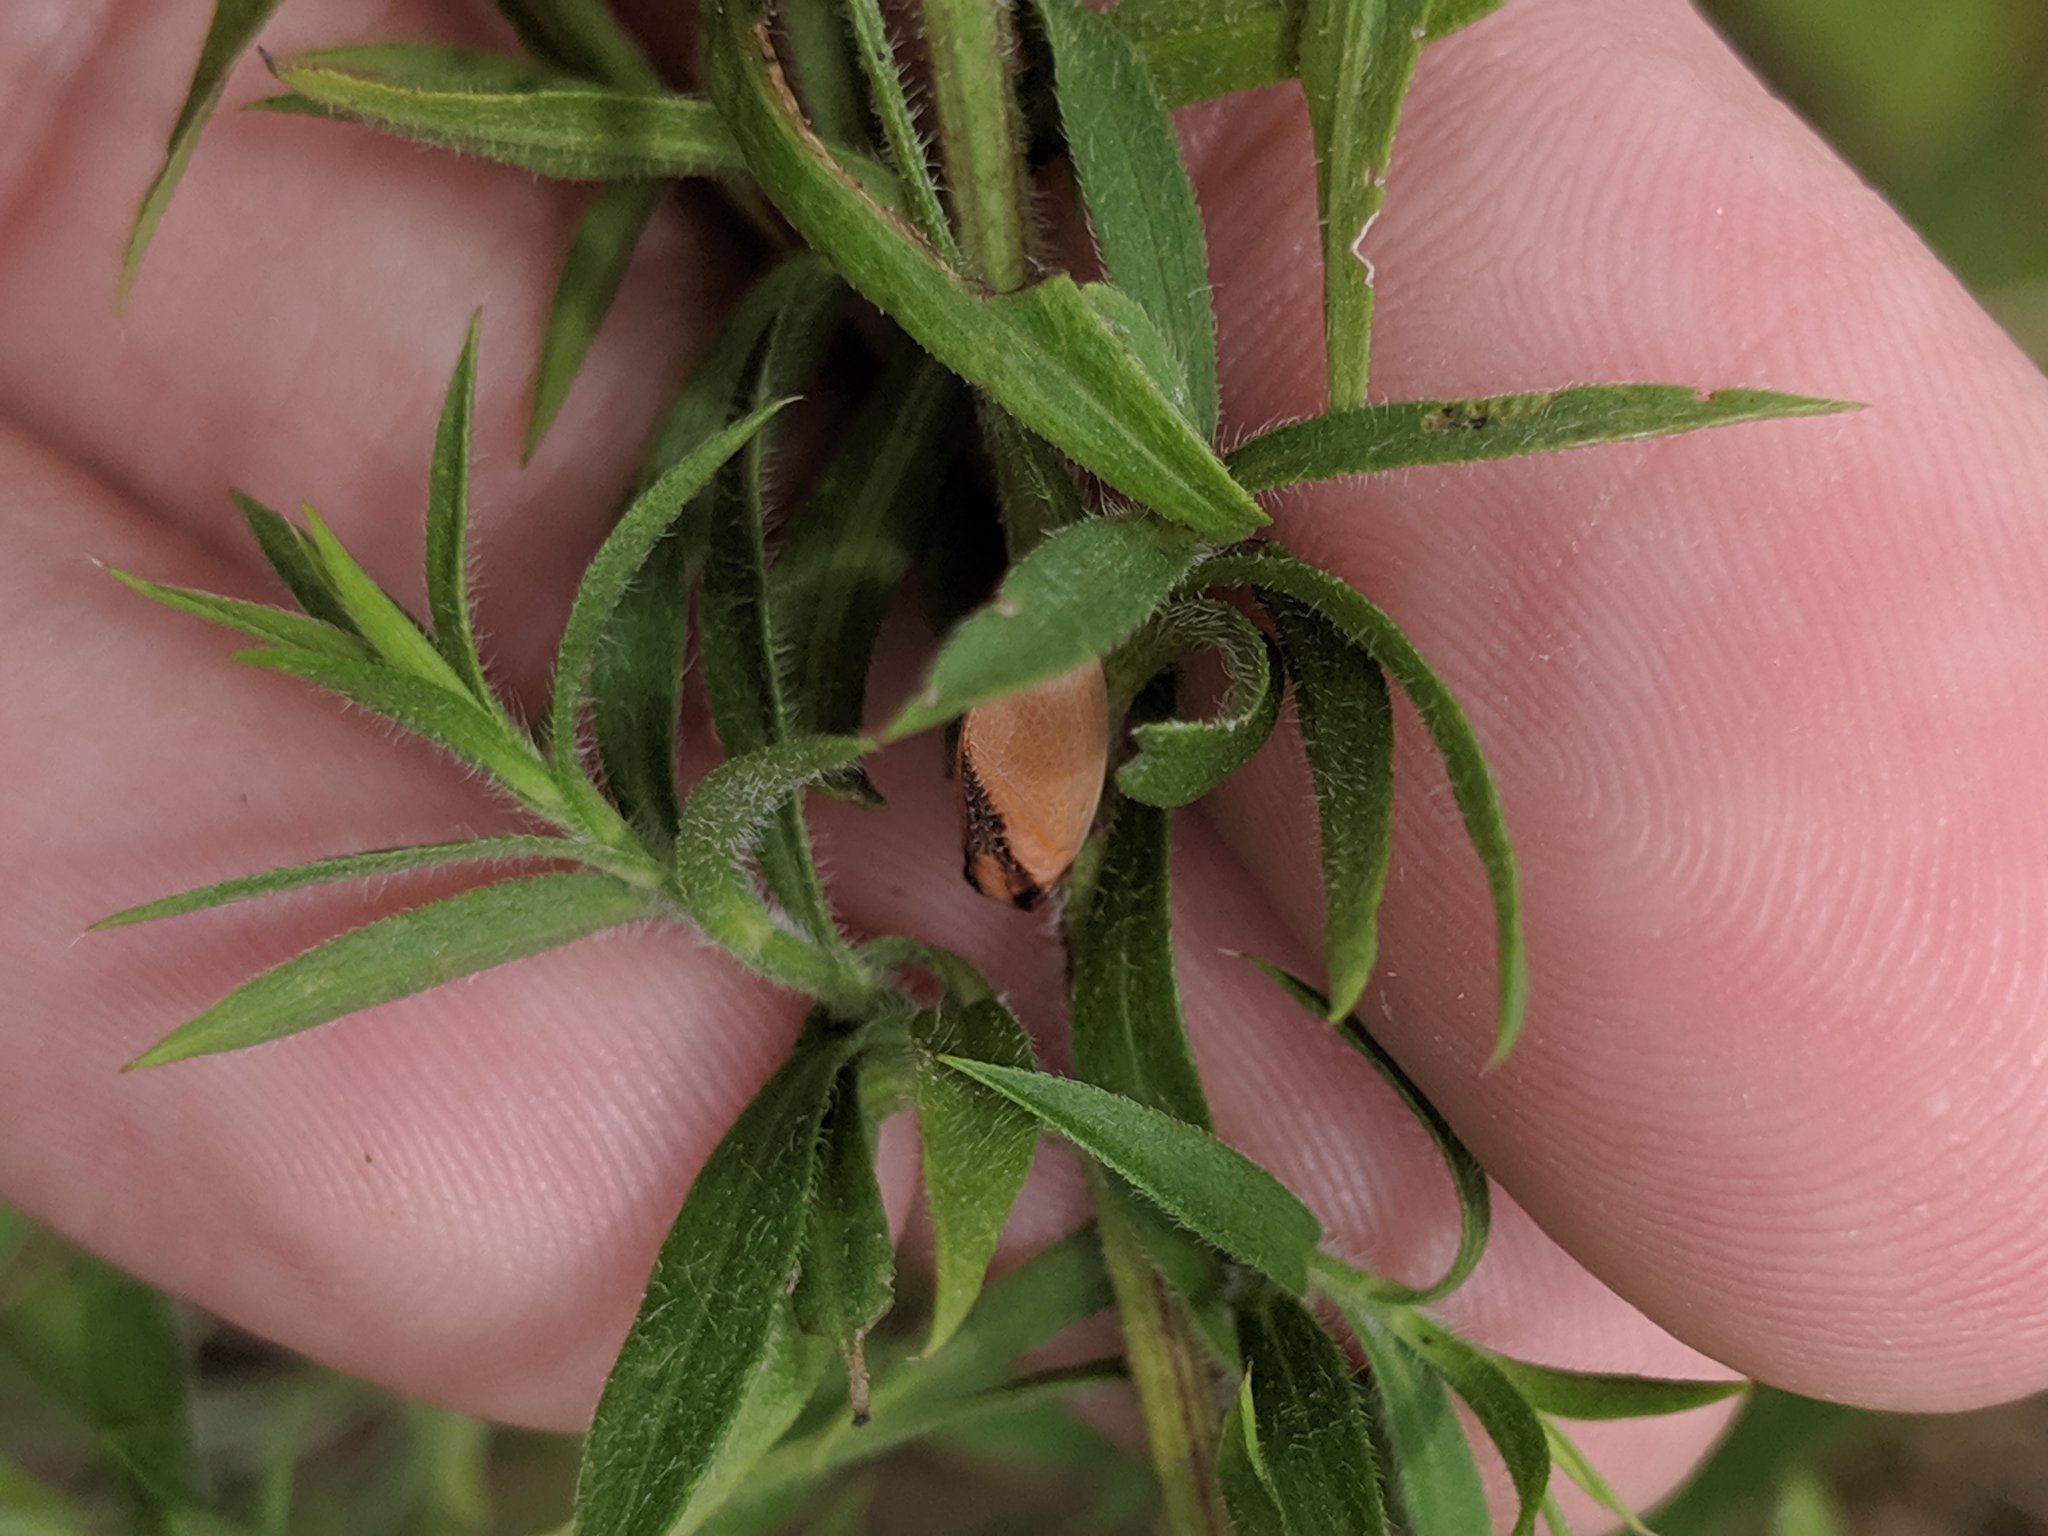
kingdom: Animalia
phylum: Arthropoda
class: Insecta
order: Hemiptera
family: Acanaloniidae
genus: Acanalonia
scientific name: Acanalonia bivittata
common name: Two-striped planthopper
